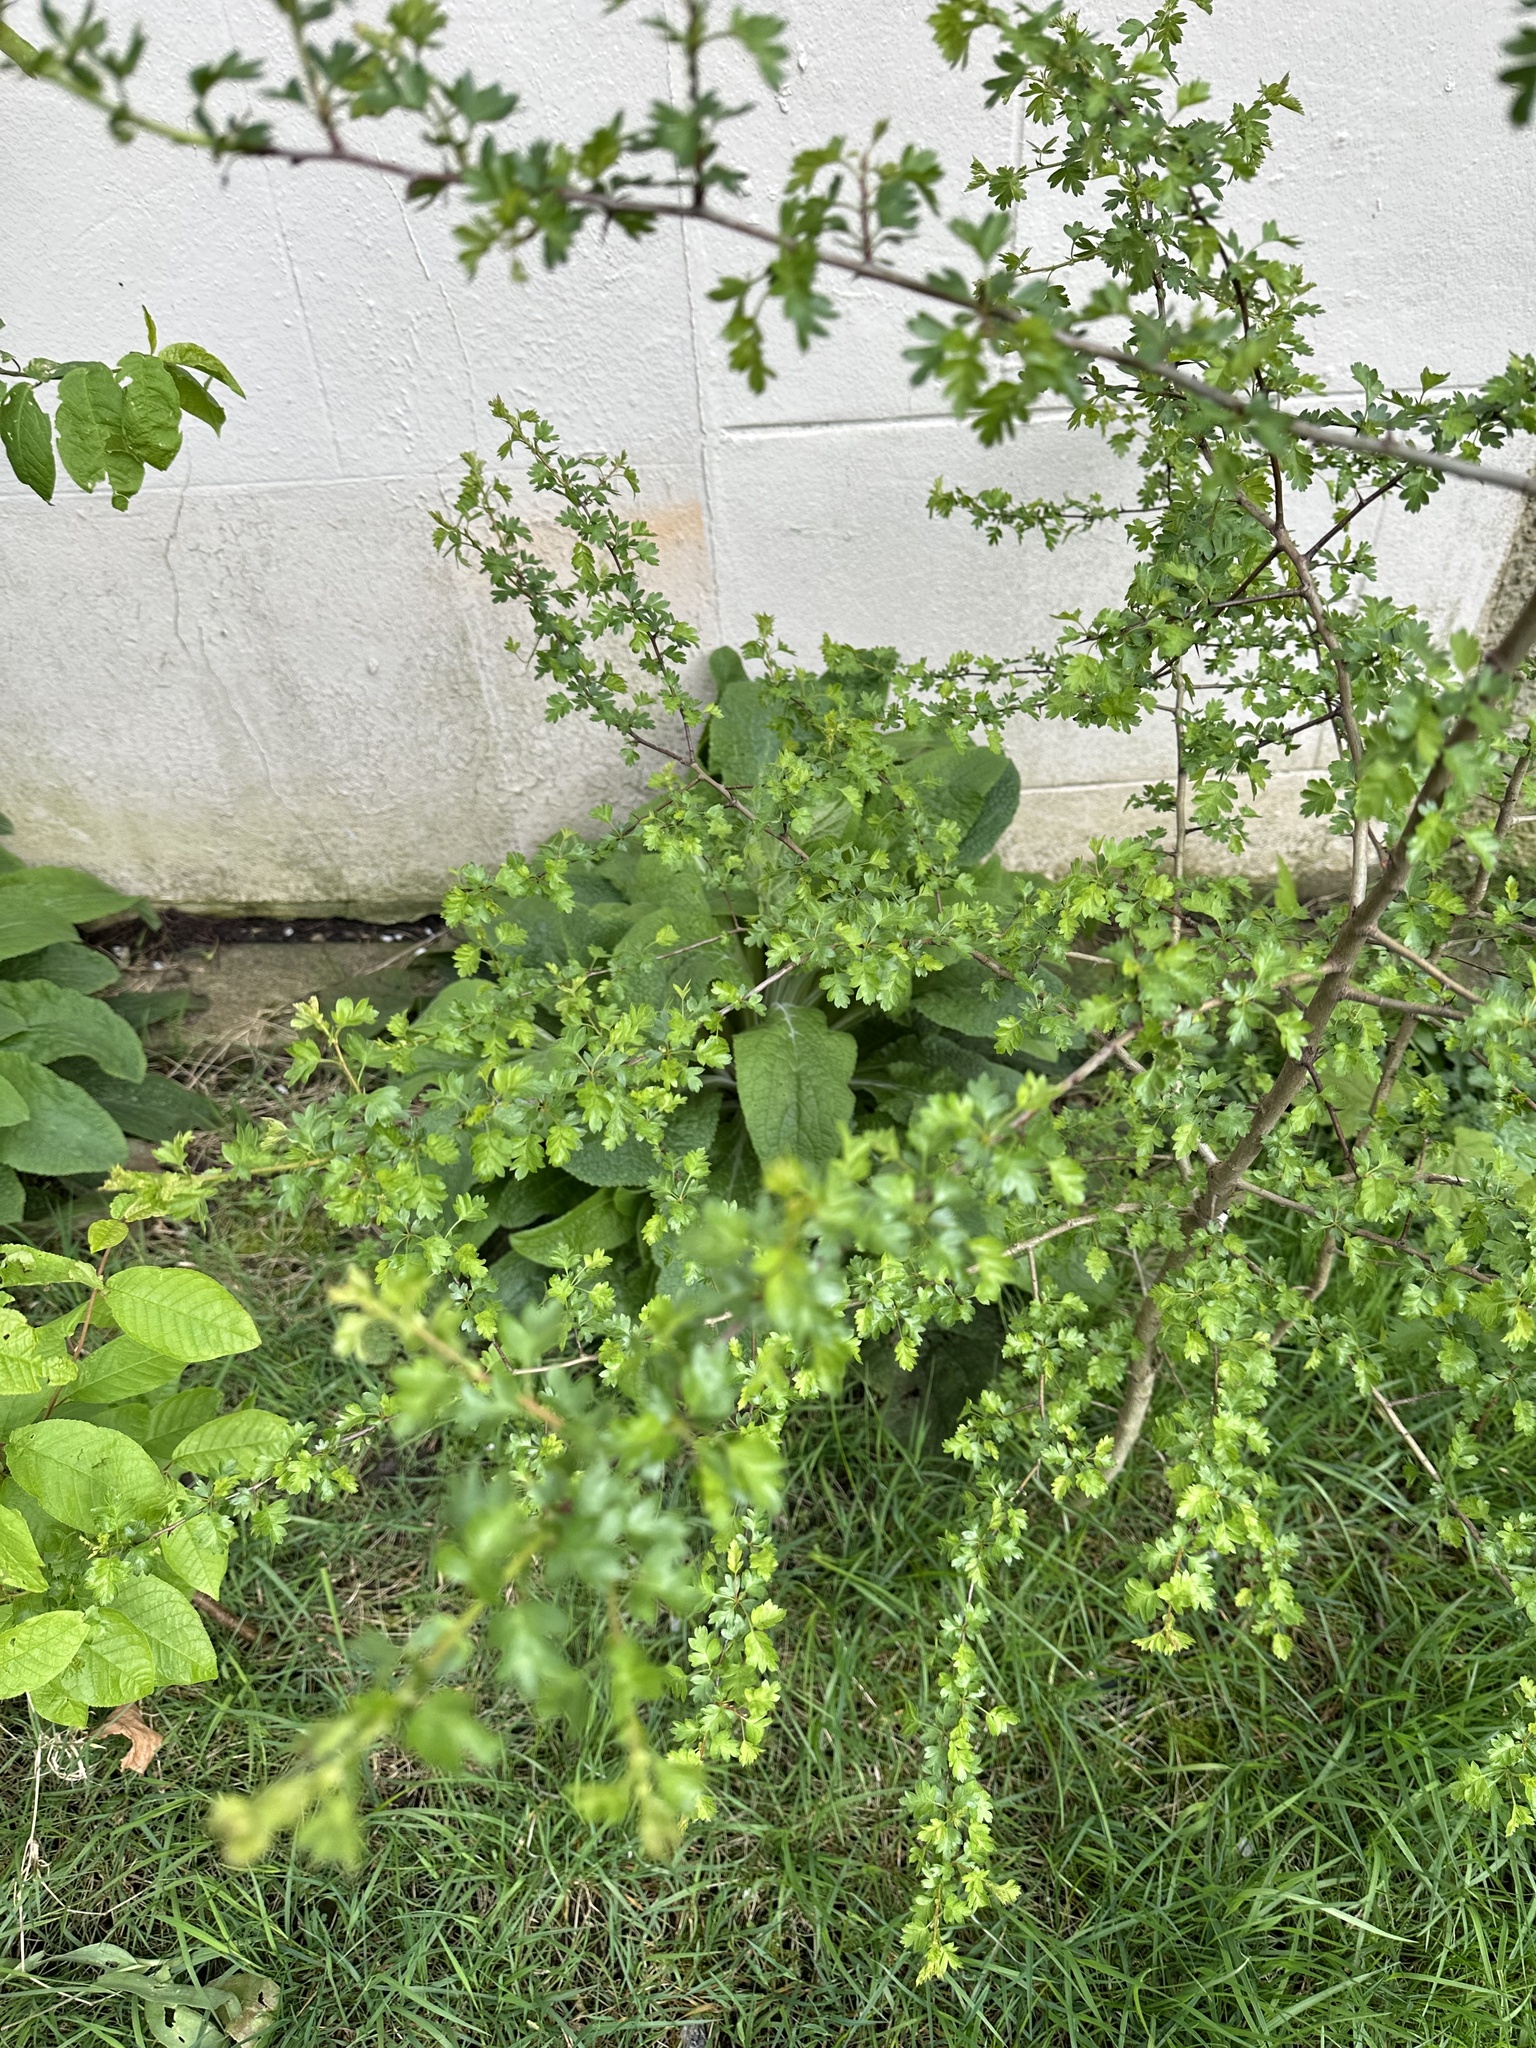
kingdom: Plantae
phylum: Tracheophyta
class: Magnoliopsida
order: Rosales
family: Rosaceae
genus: Crataegus
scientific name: Crataegus monogyna
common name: Hawthorn
